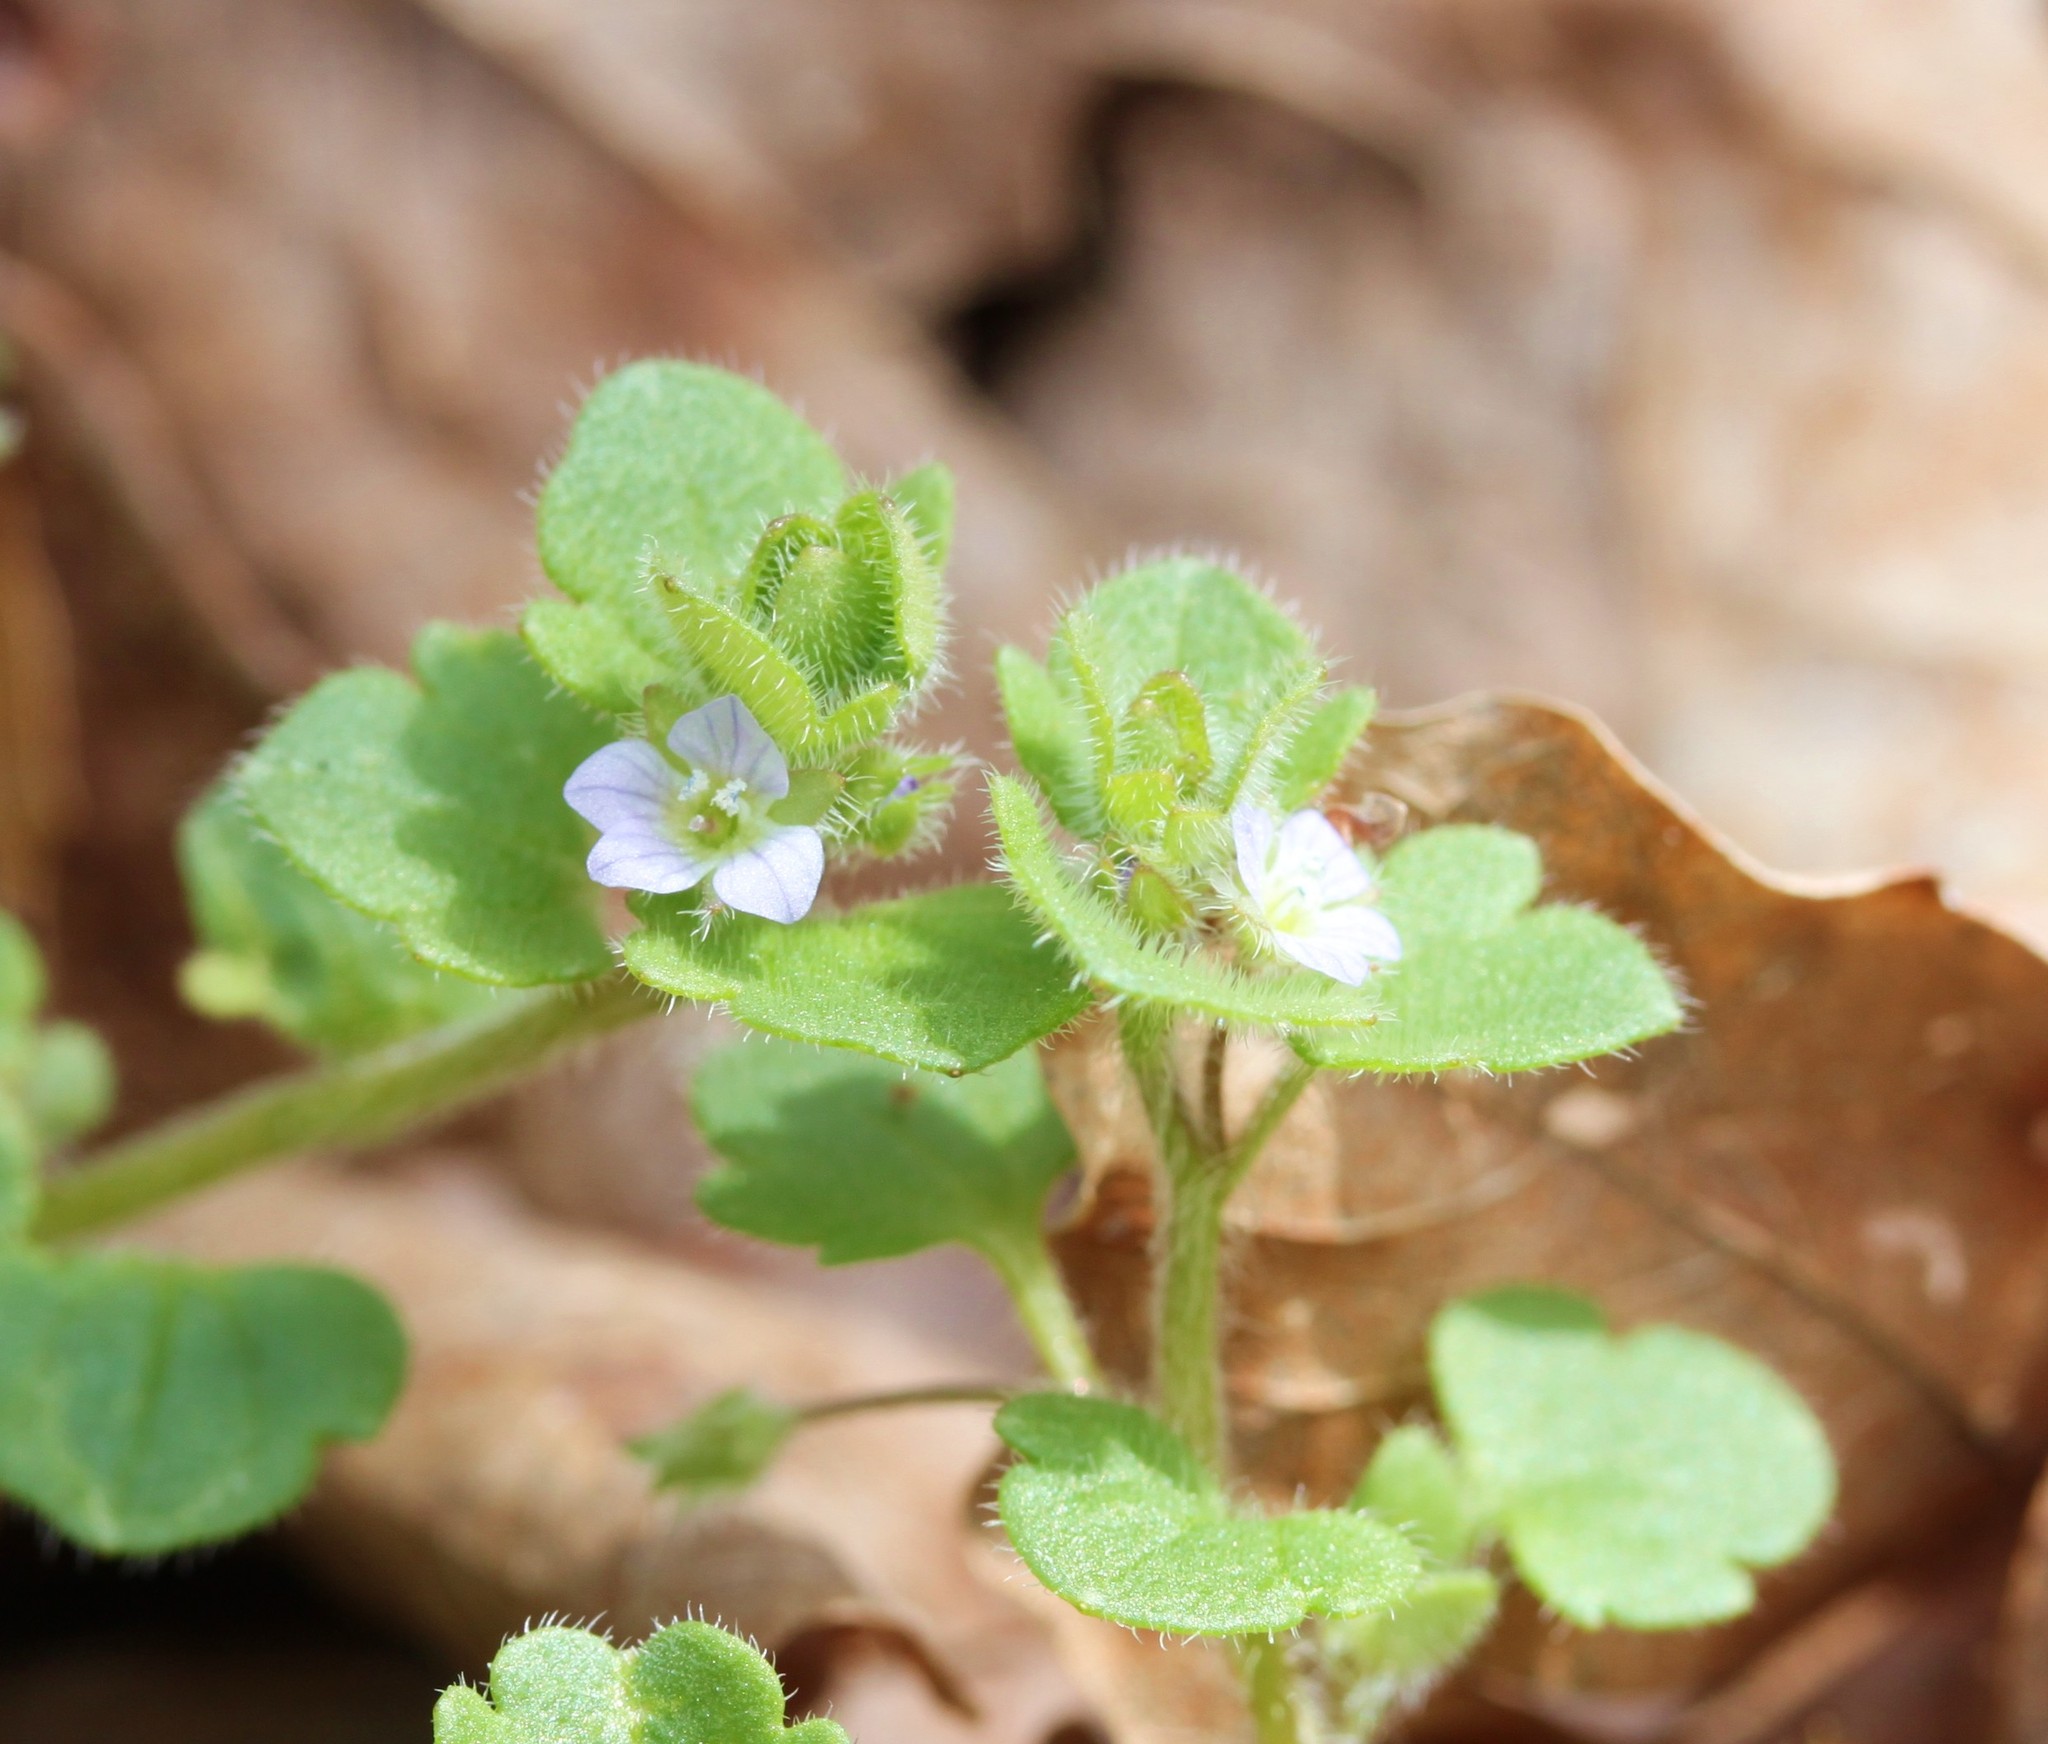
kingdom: Plantae
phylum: Tracheophyta
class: Magnoliopsida
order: Lamiales
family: Plantaginaceae
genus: Veronica
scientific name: Veronica hederifolia
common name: Ivy-leaved speedwell
